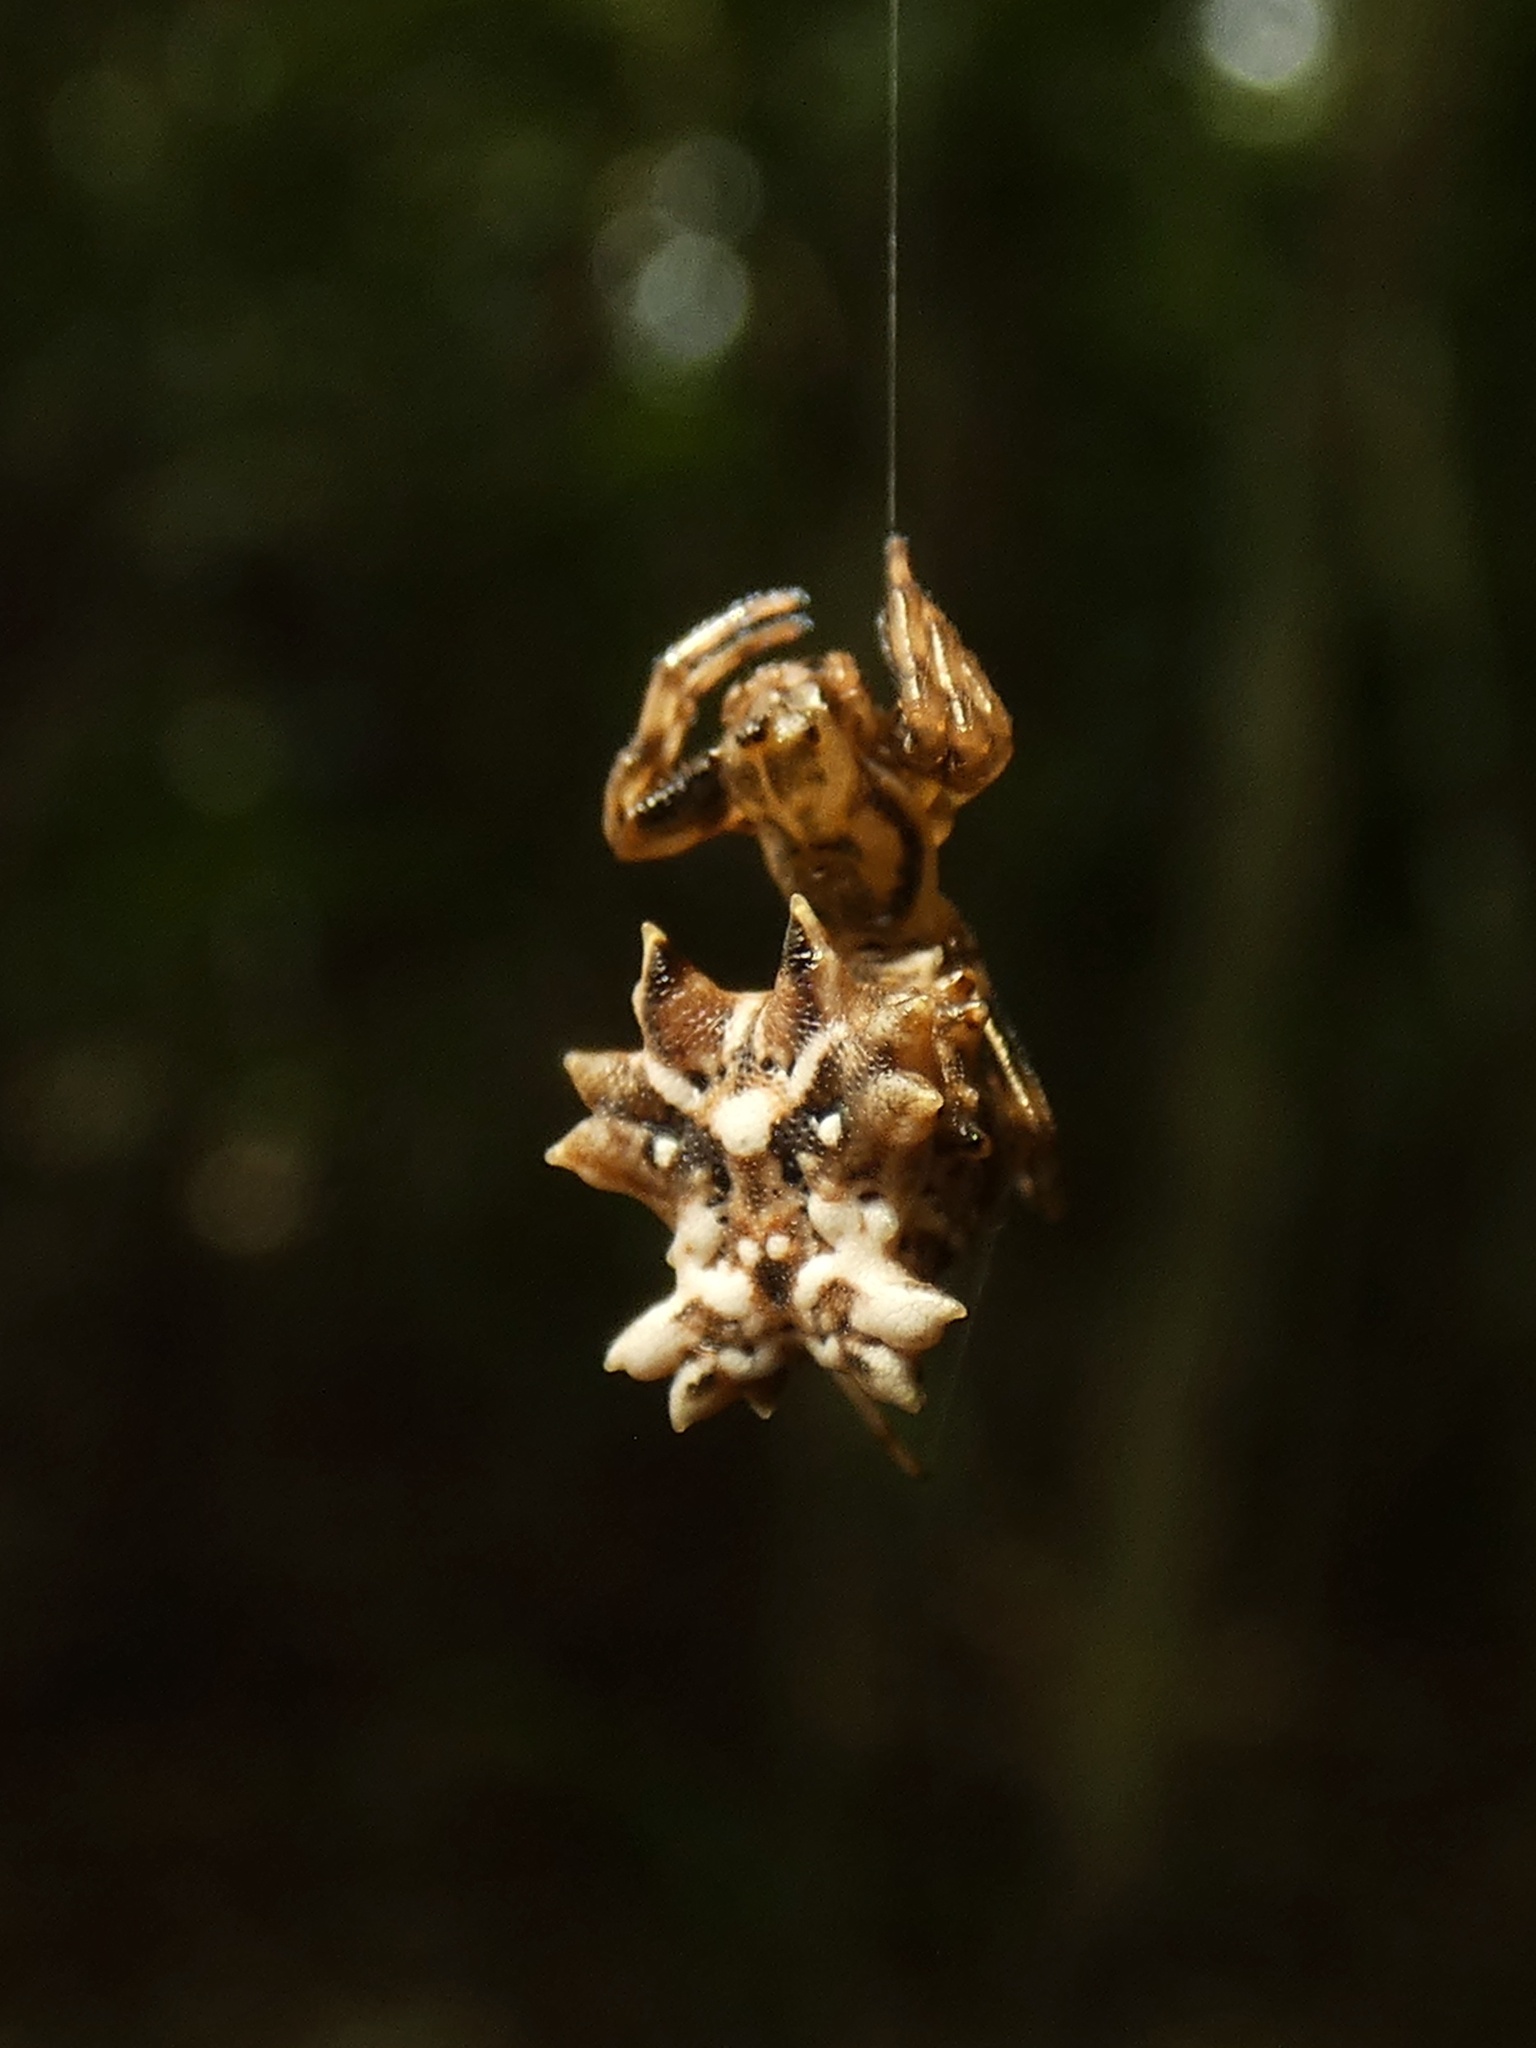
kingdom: Animalia
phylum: Arthropoda
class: Arachnida
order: Araneae
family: Araneidae
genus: Micrathena
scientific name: Micrathena horrida
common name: Orb weavers
